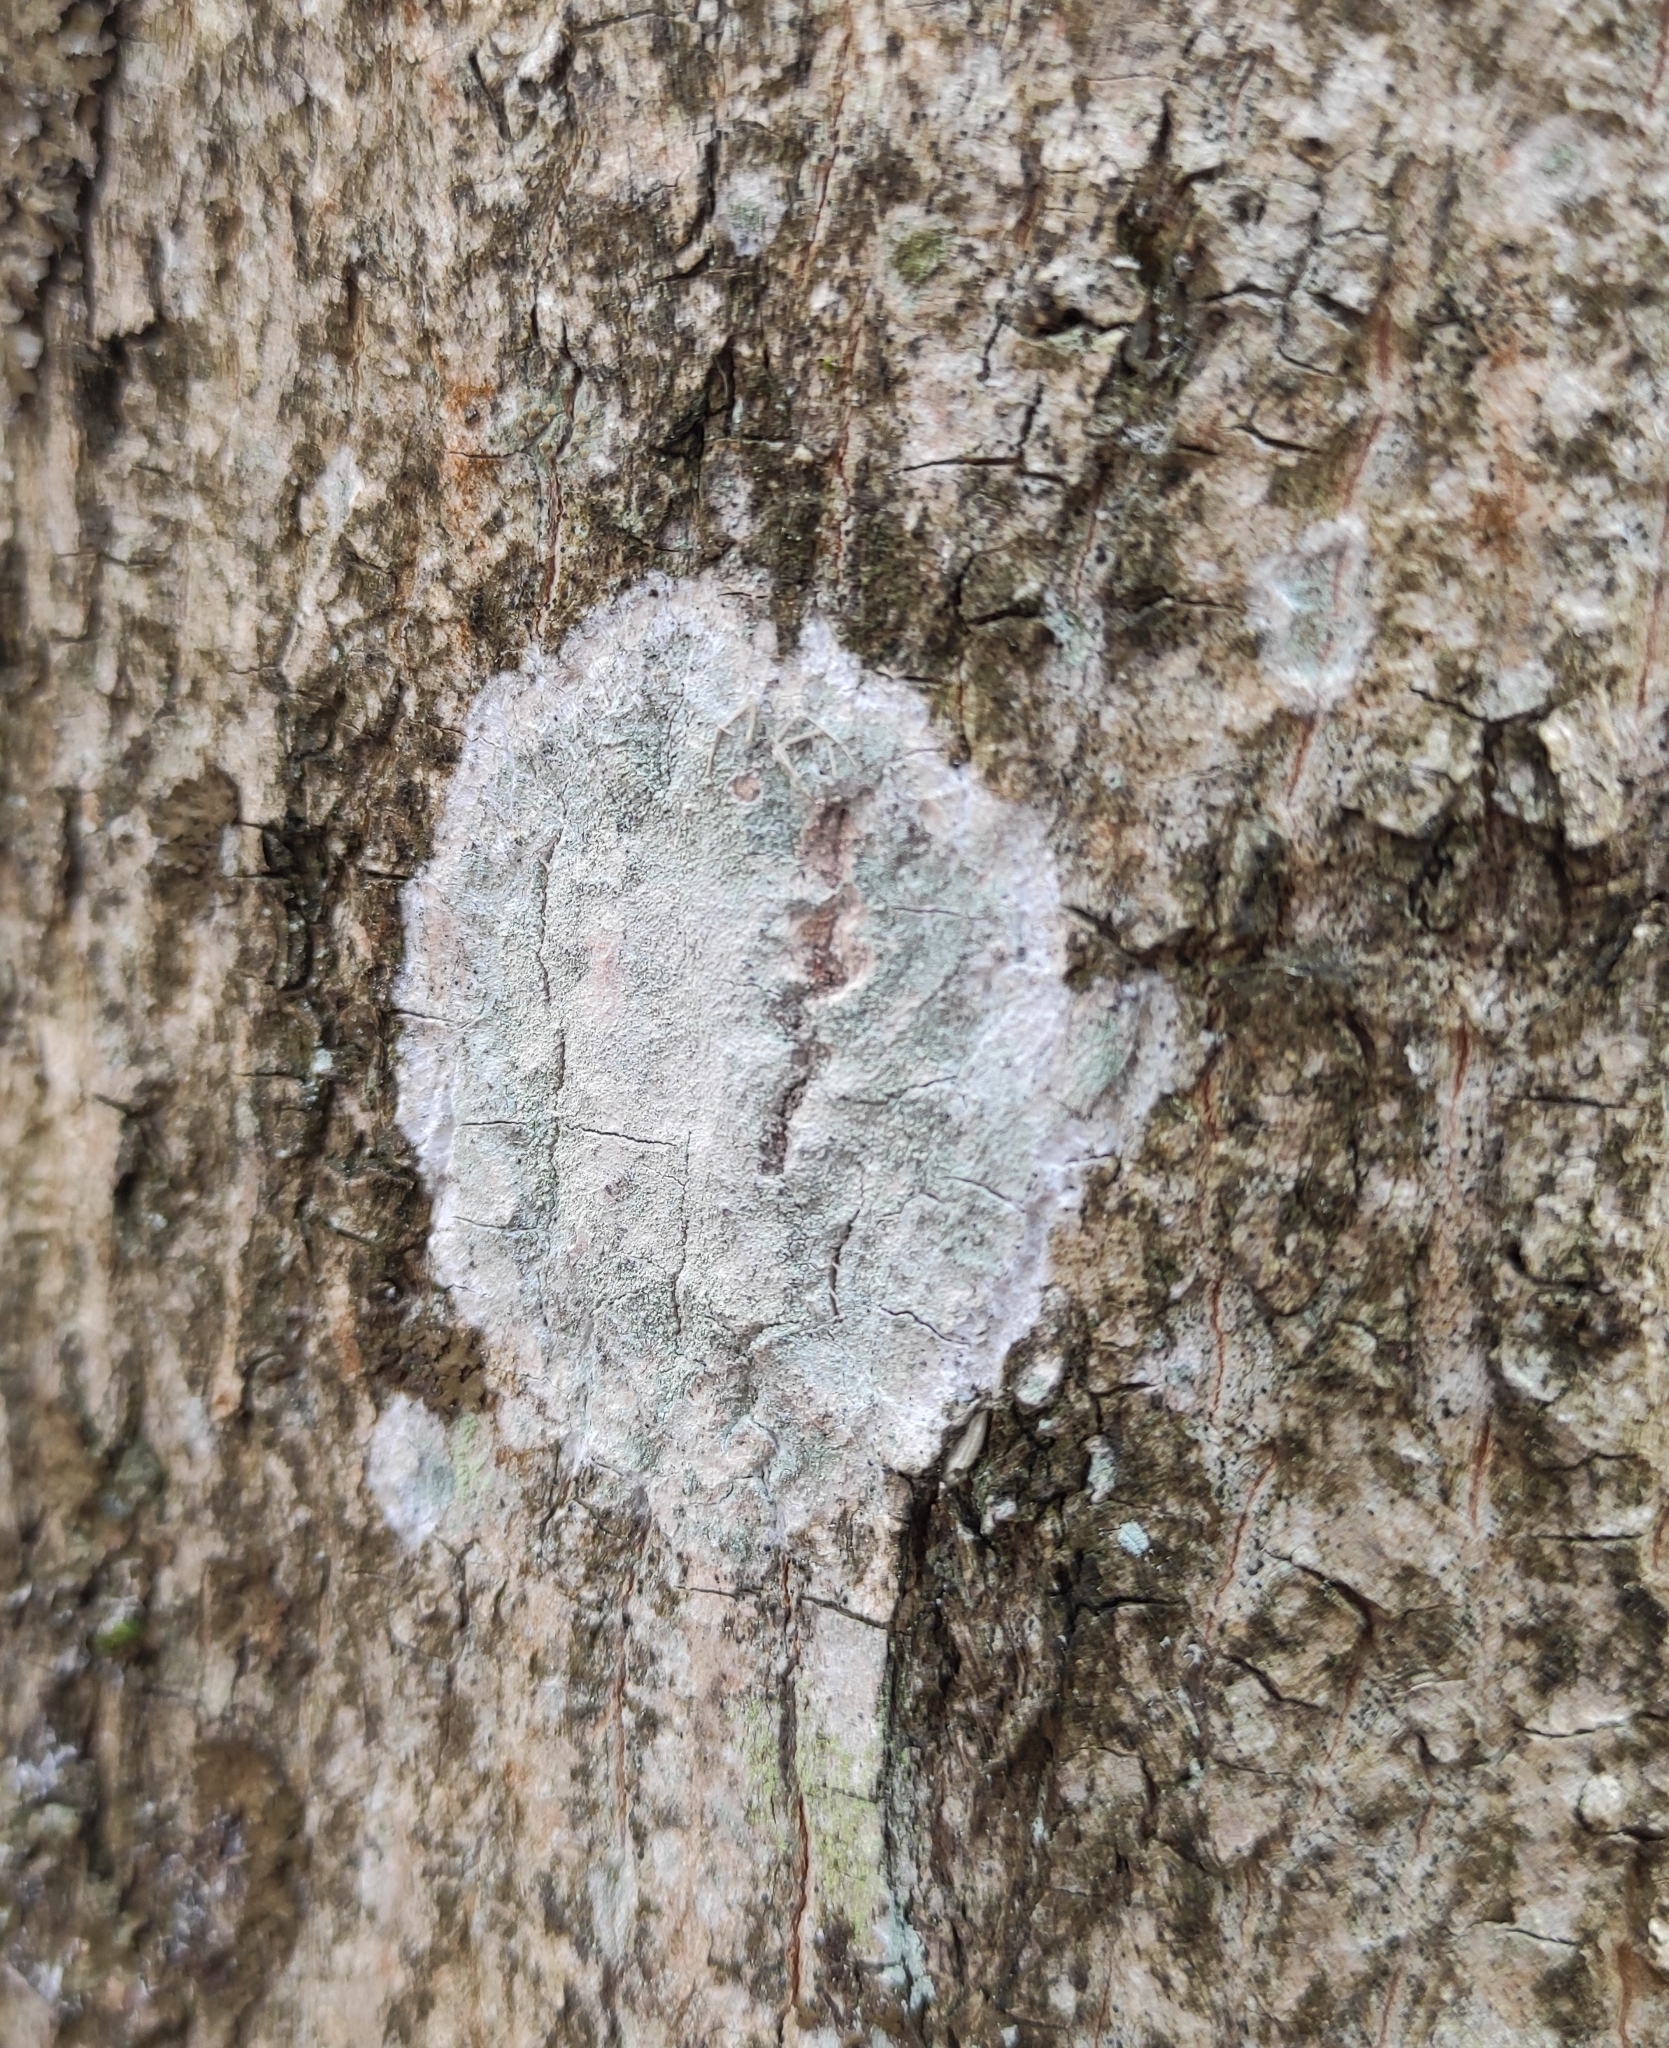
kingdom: Fungi
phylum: Ascomycota
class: Lecanoromycetes
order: Ostropales
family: Phlyctidaceae
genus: Phlyctis
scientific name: Phlyctis argena
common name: Whitewash lichen
